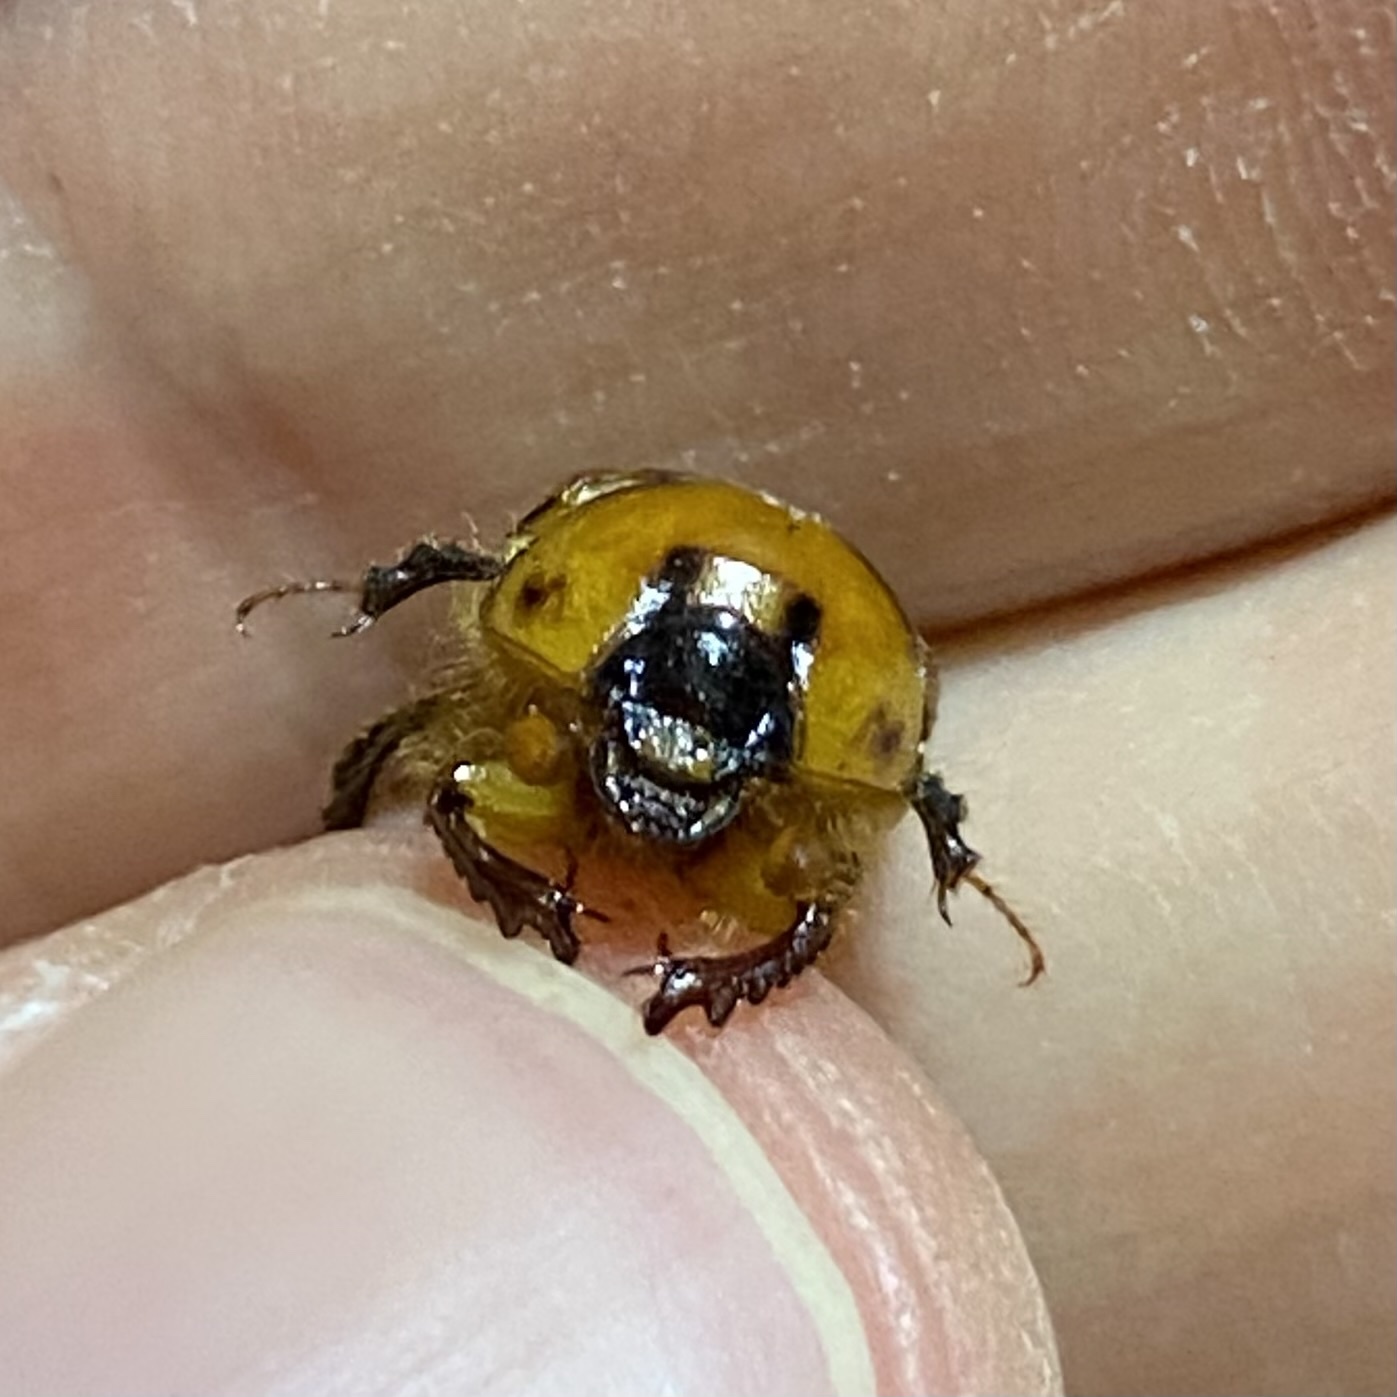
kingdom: Animalia
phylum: Arthropoda
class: Insecta
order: Coleoptera
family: Geotrupidae
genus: Bolbocerosoma
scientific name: Bolbocerosoma confusum
